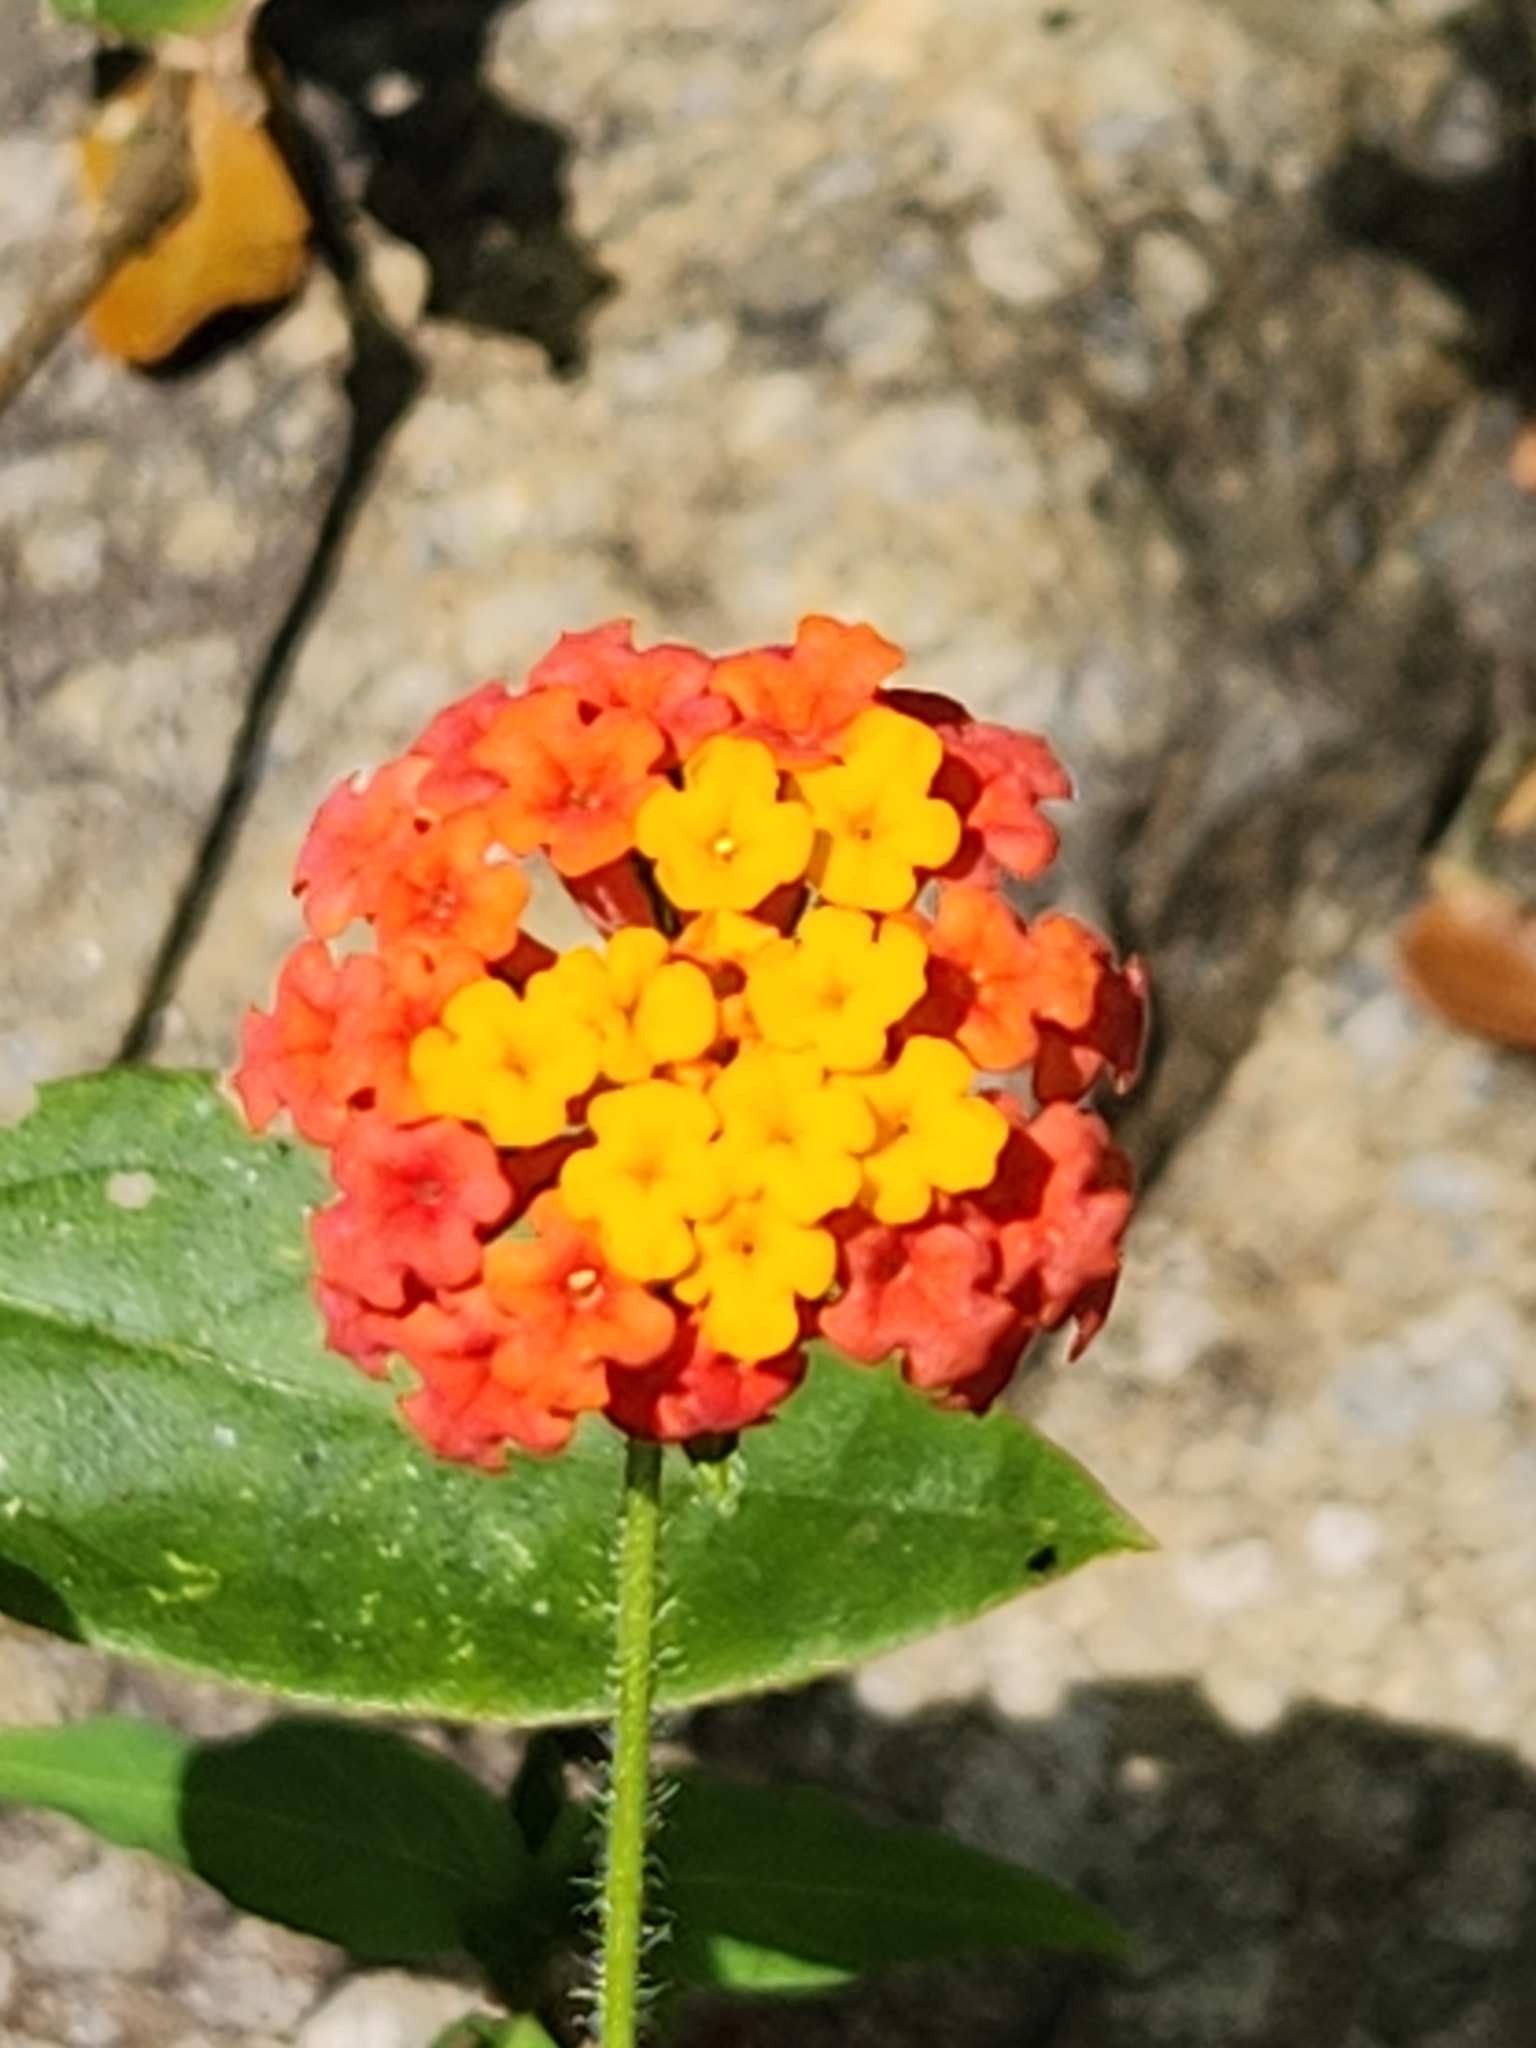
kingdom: Plantae
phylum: Tracheophyta
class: Magnoliopsida
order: Lamiales
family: Verbenaceae
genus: Lantana
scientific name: Lantana camara
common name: Lantana
